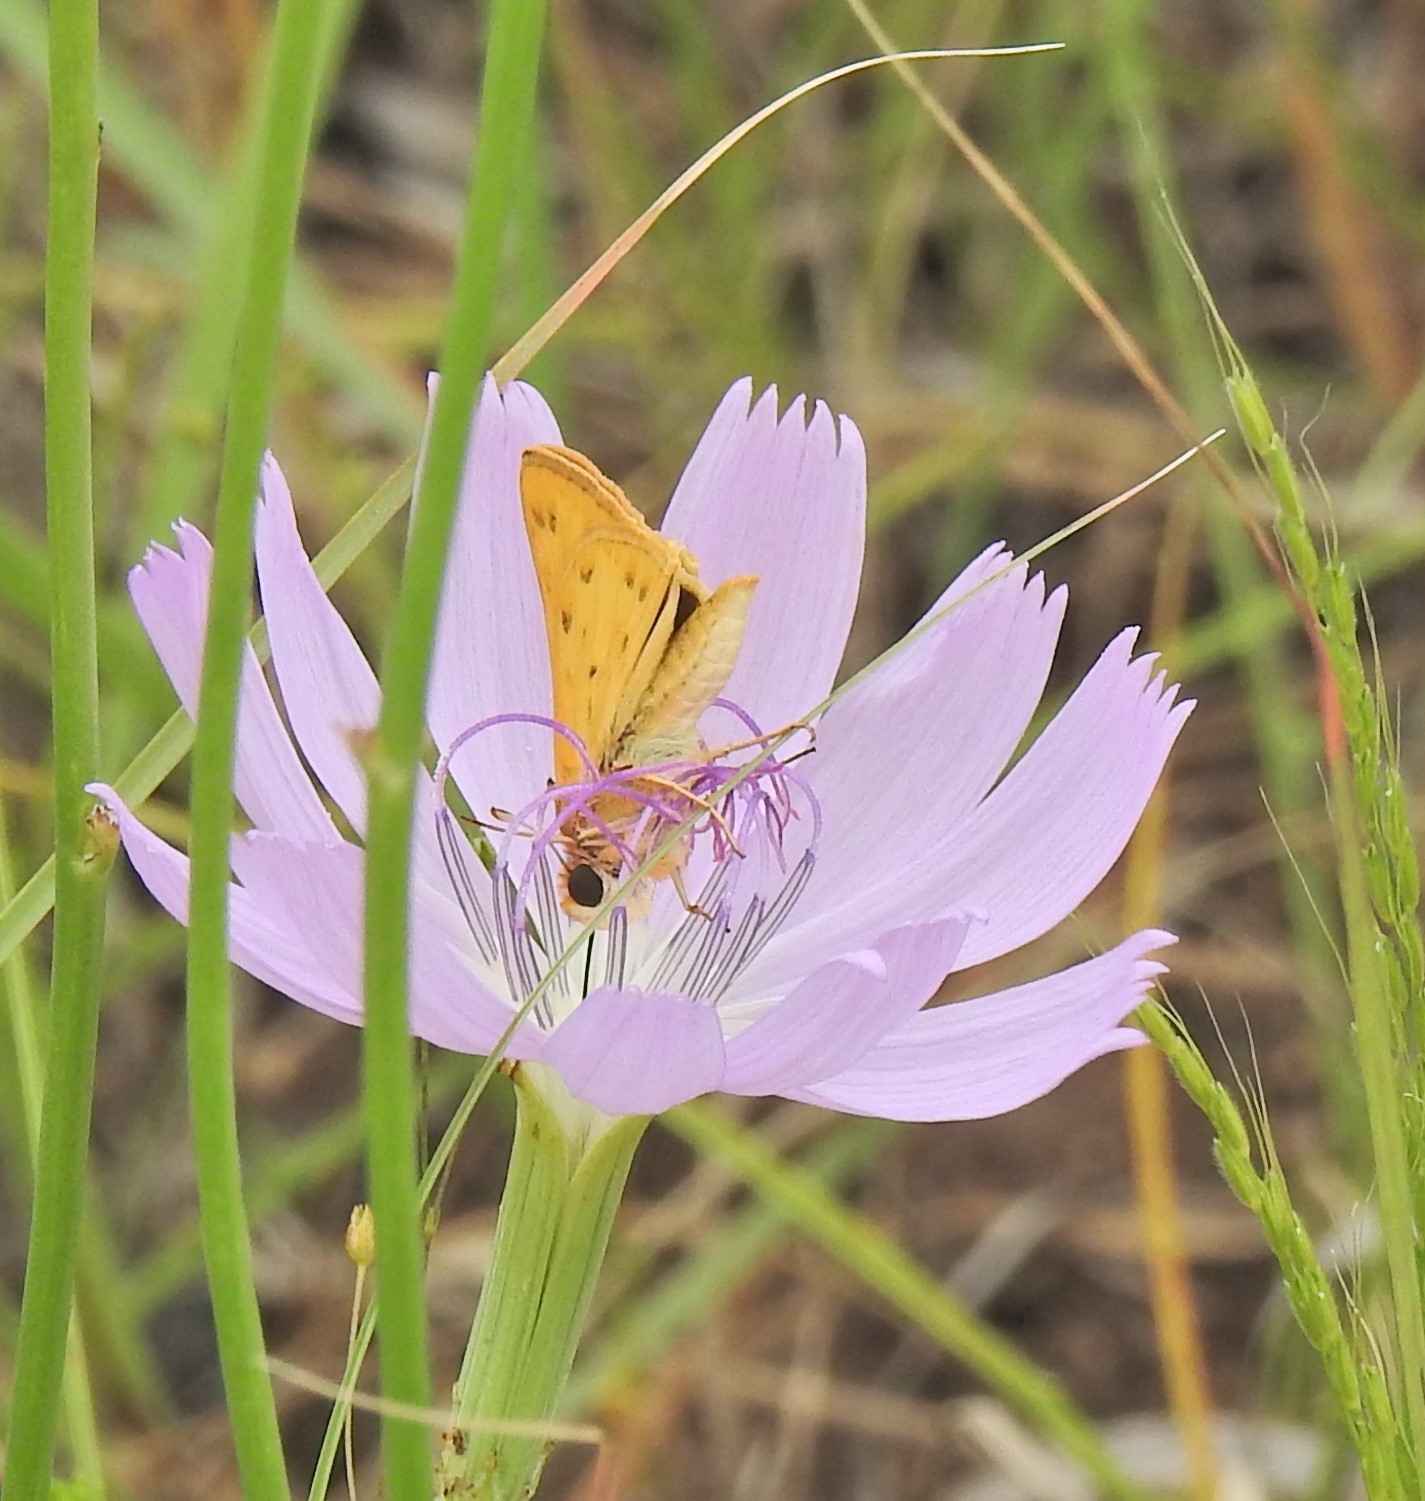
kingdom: Animalia
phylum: Arthropoda
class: Insecta
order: Lepidoptera
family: Hesperiidae
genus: Hylephila
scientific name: Hylephila phyleus
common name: Fiery skipper
